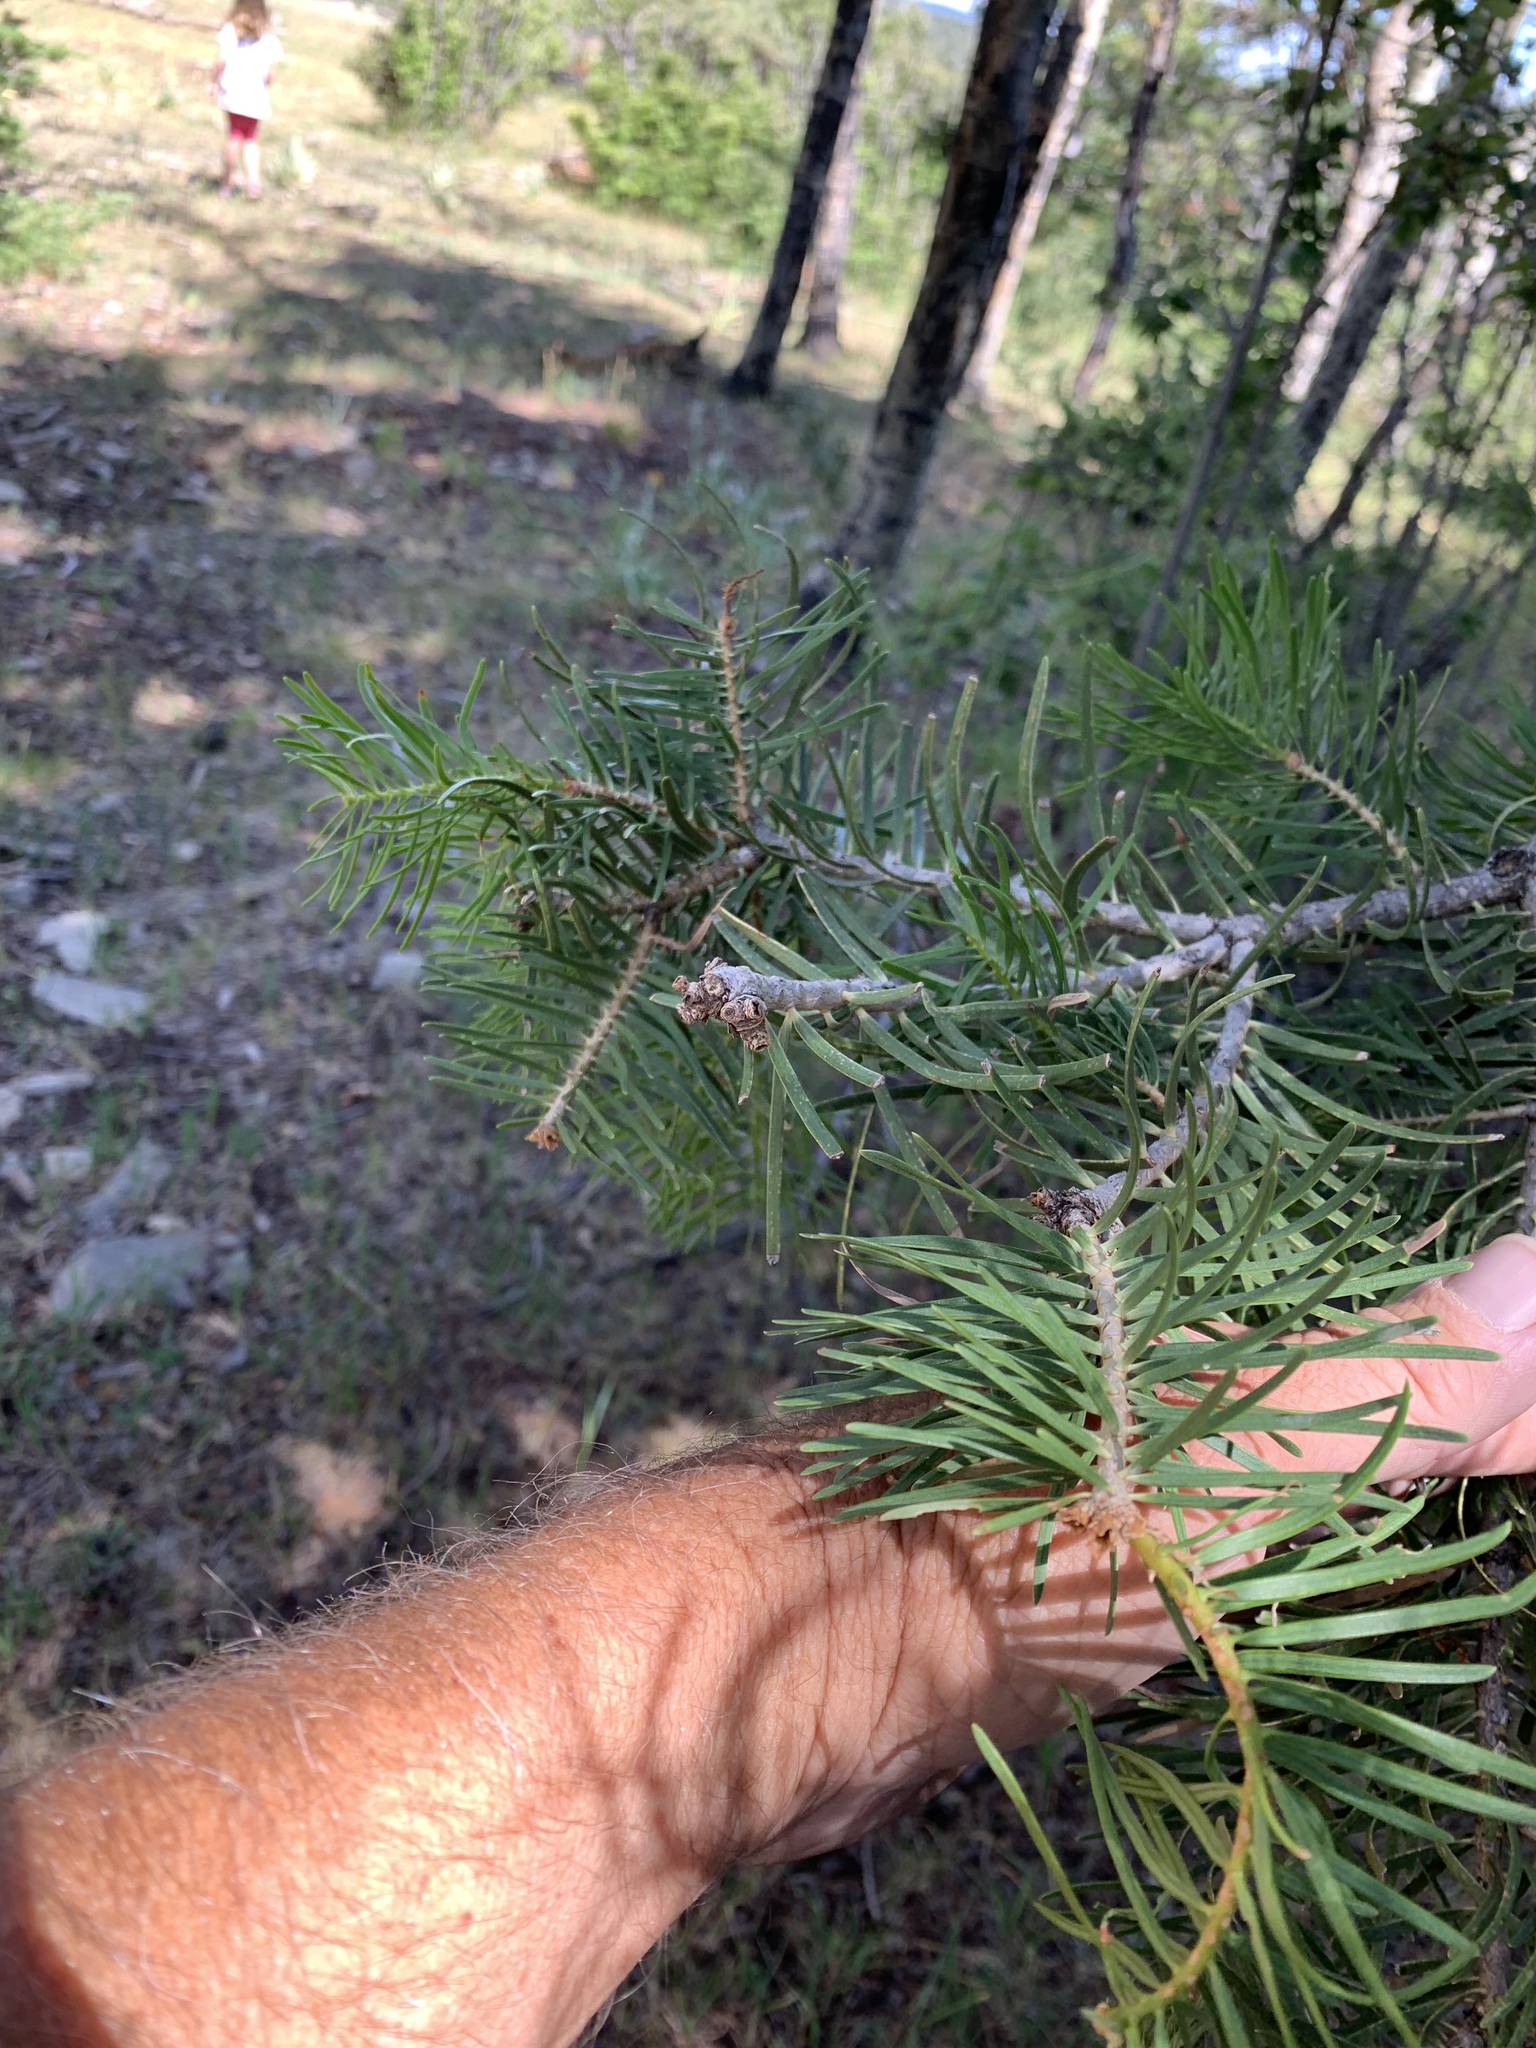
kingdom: Plantae
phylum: Tracheophyta
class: Pinopsida
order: Pinales
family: Pinaceae
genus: Abies
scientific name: Abies concolor
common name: Colorado fir
